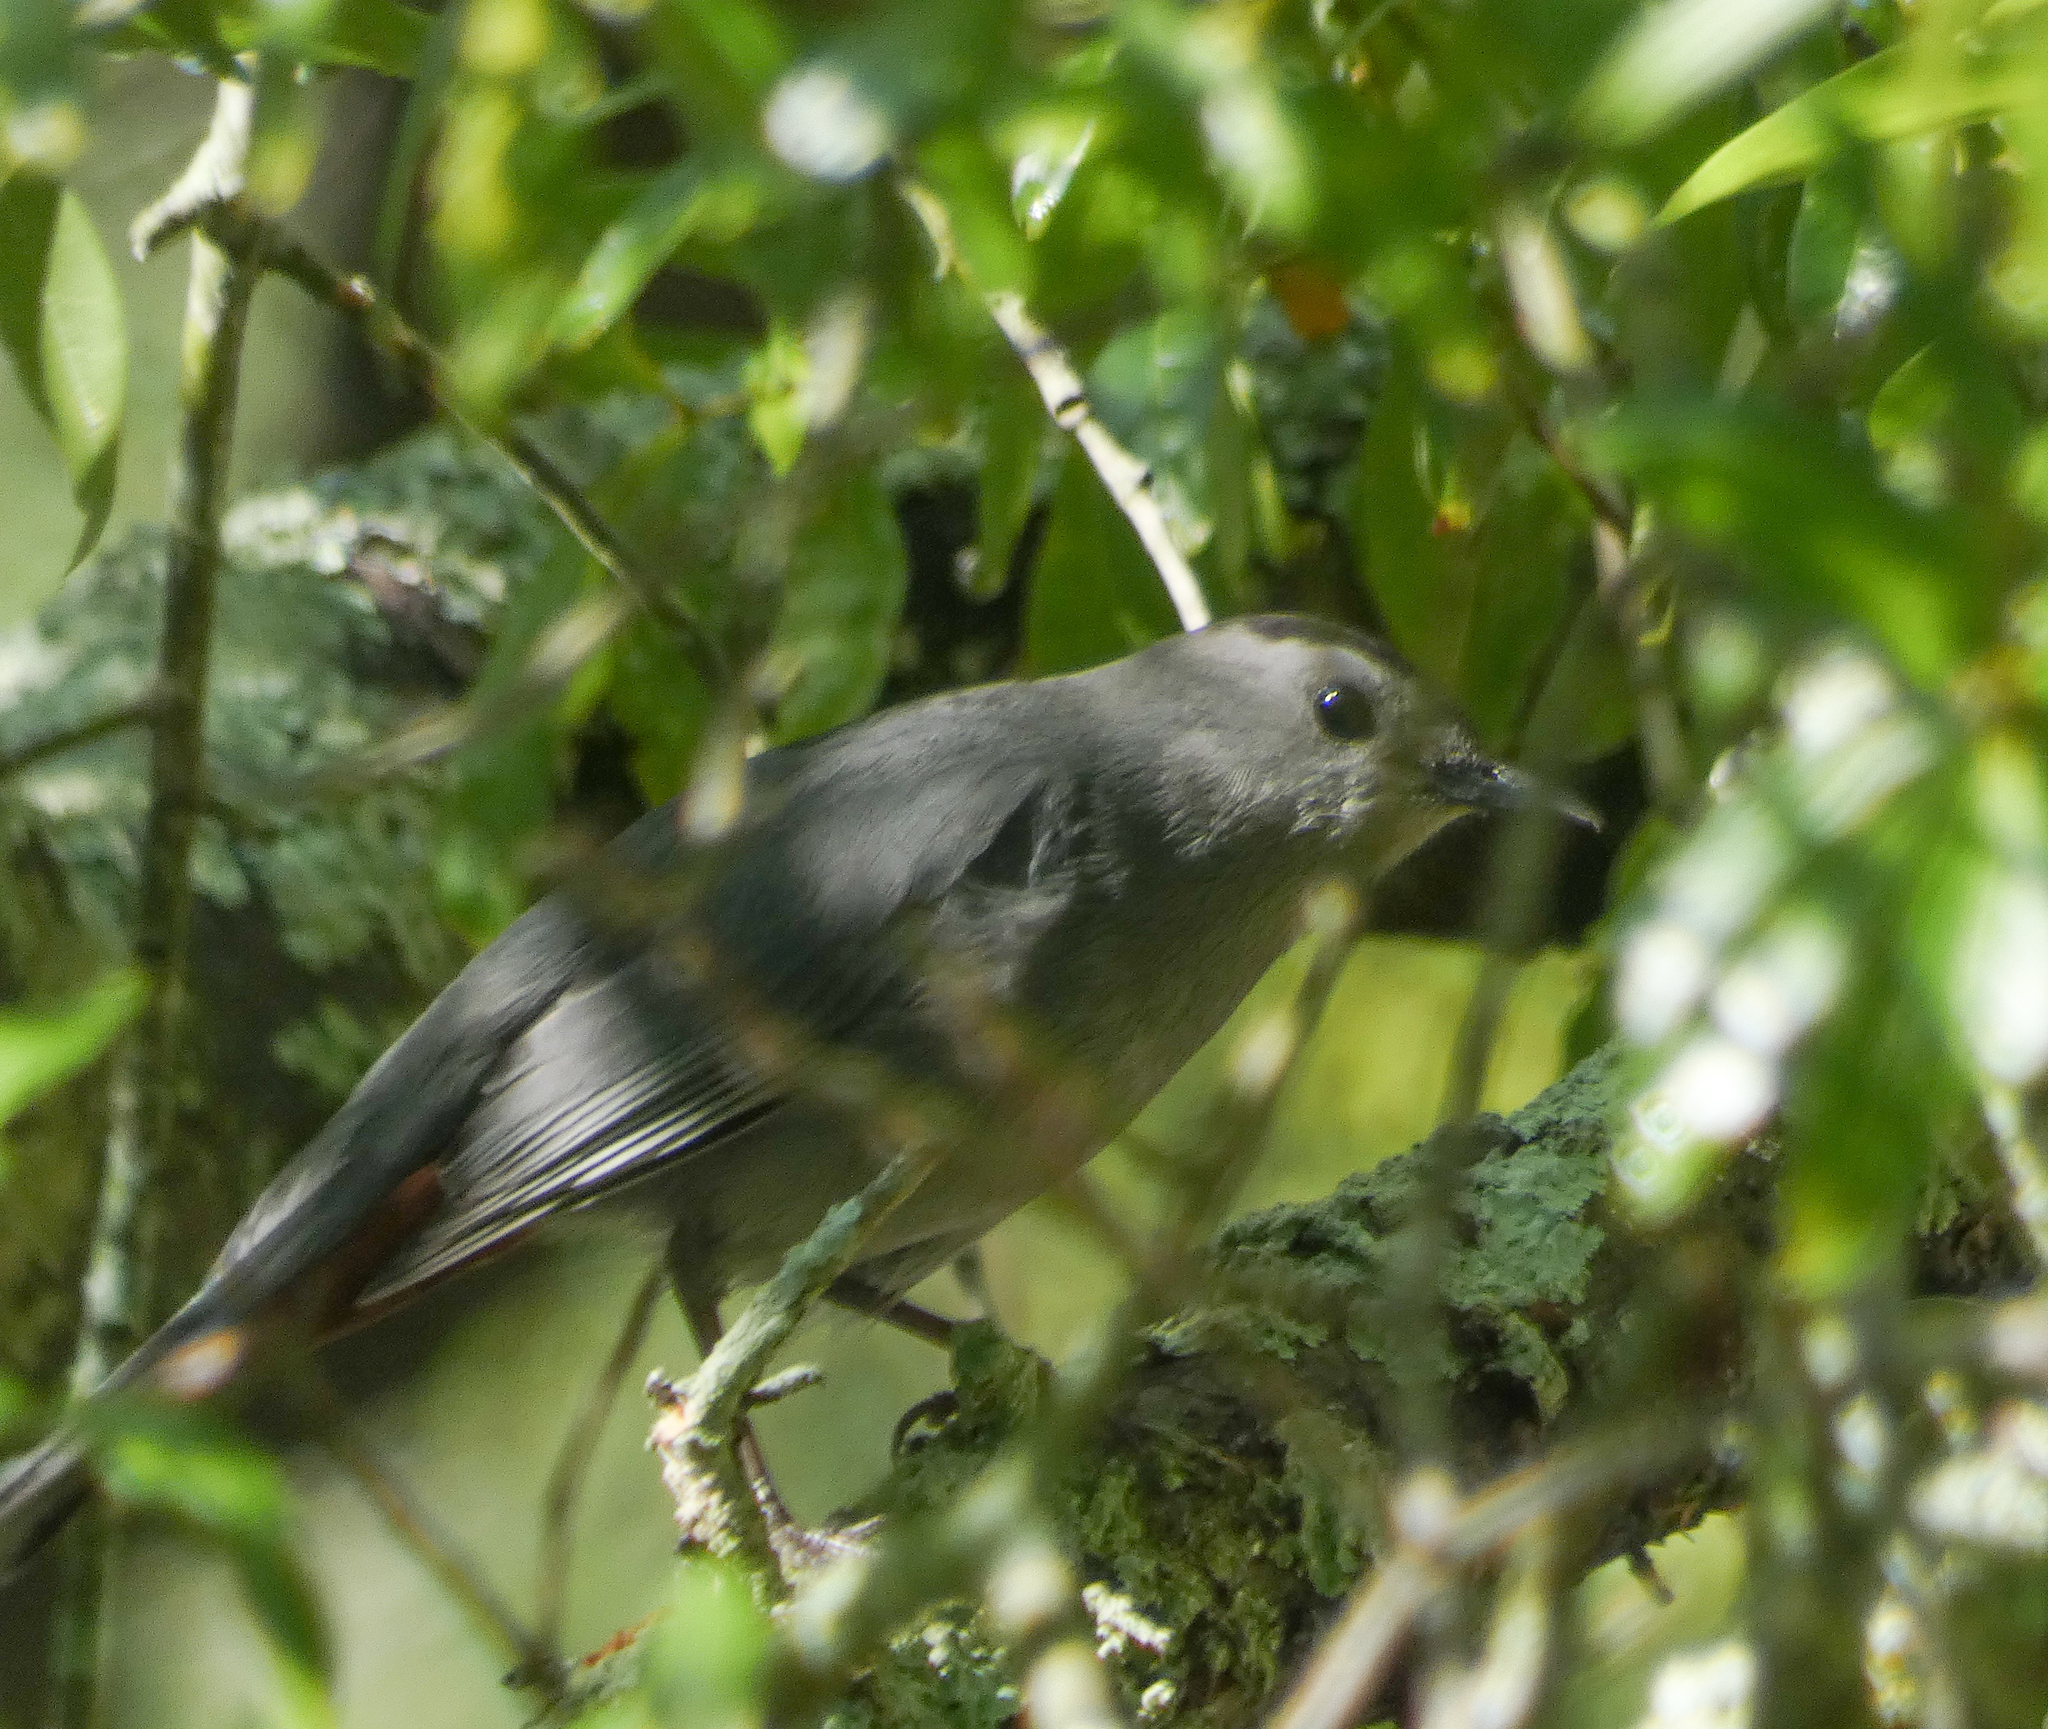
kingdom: Animalia
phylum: Chordata
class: Aves
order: Passeriformes
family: Mimidae
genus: Dumetella
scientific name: Dumetella carolinensis
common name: Gray catbird
